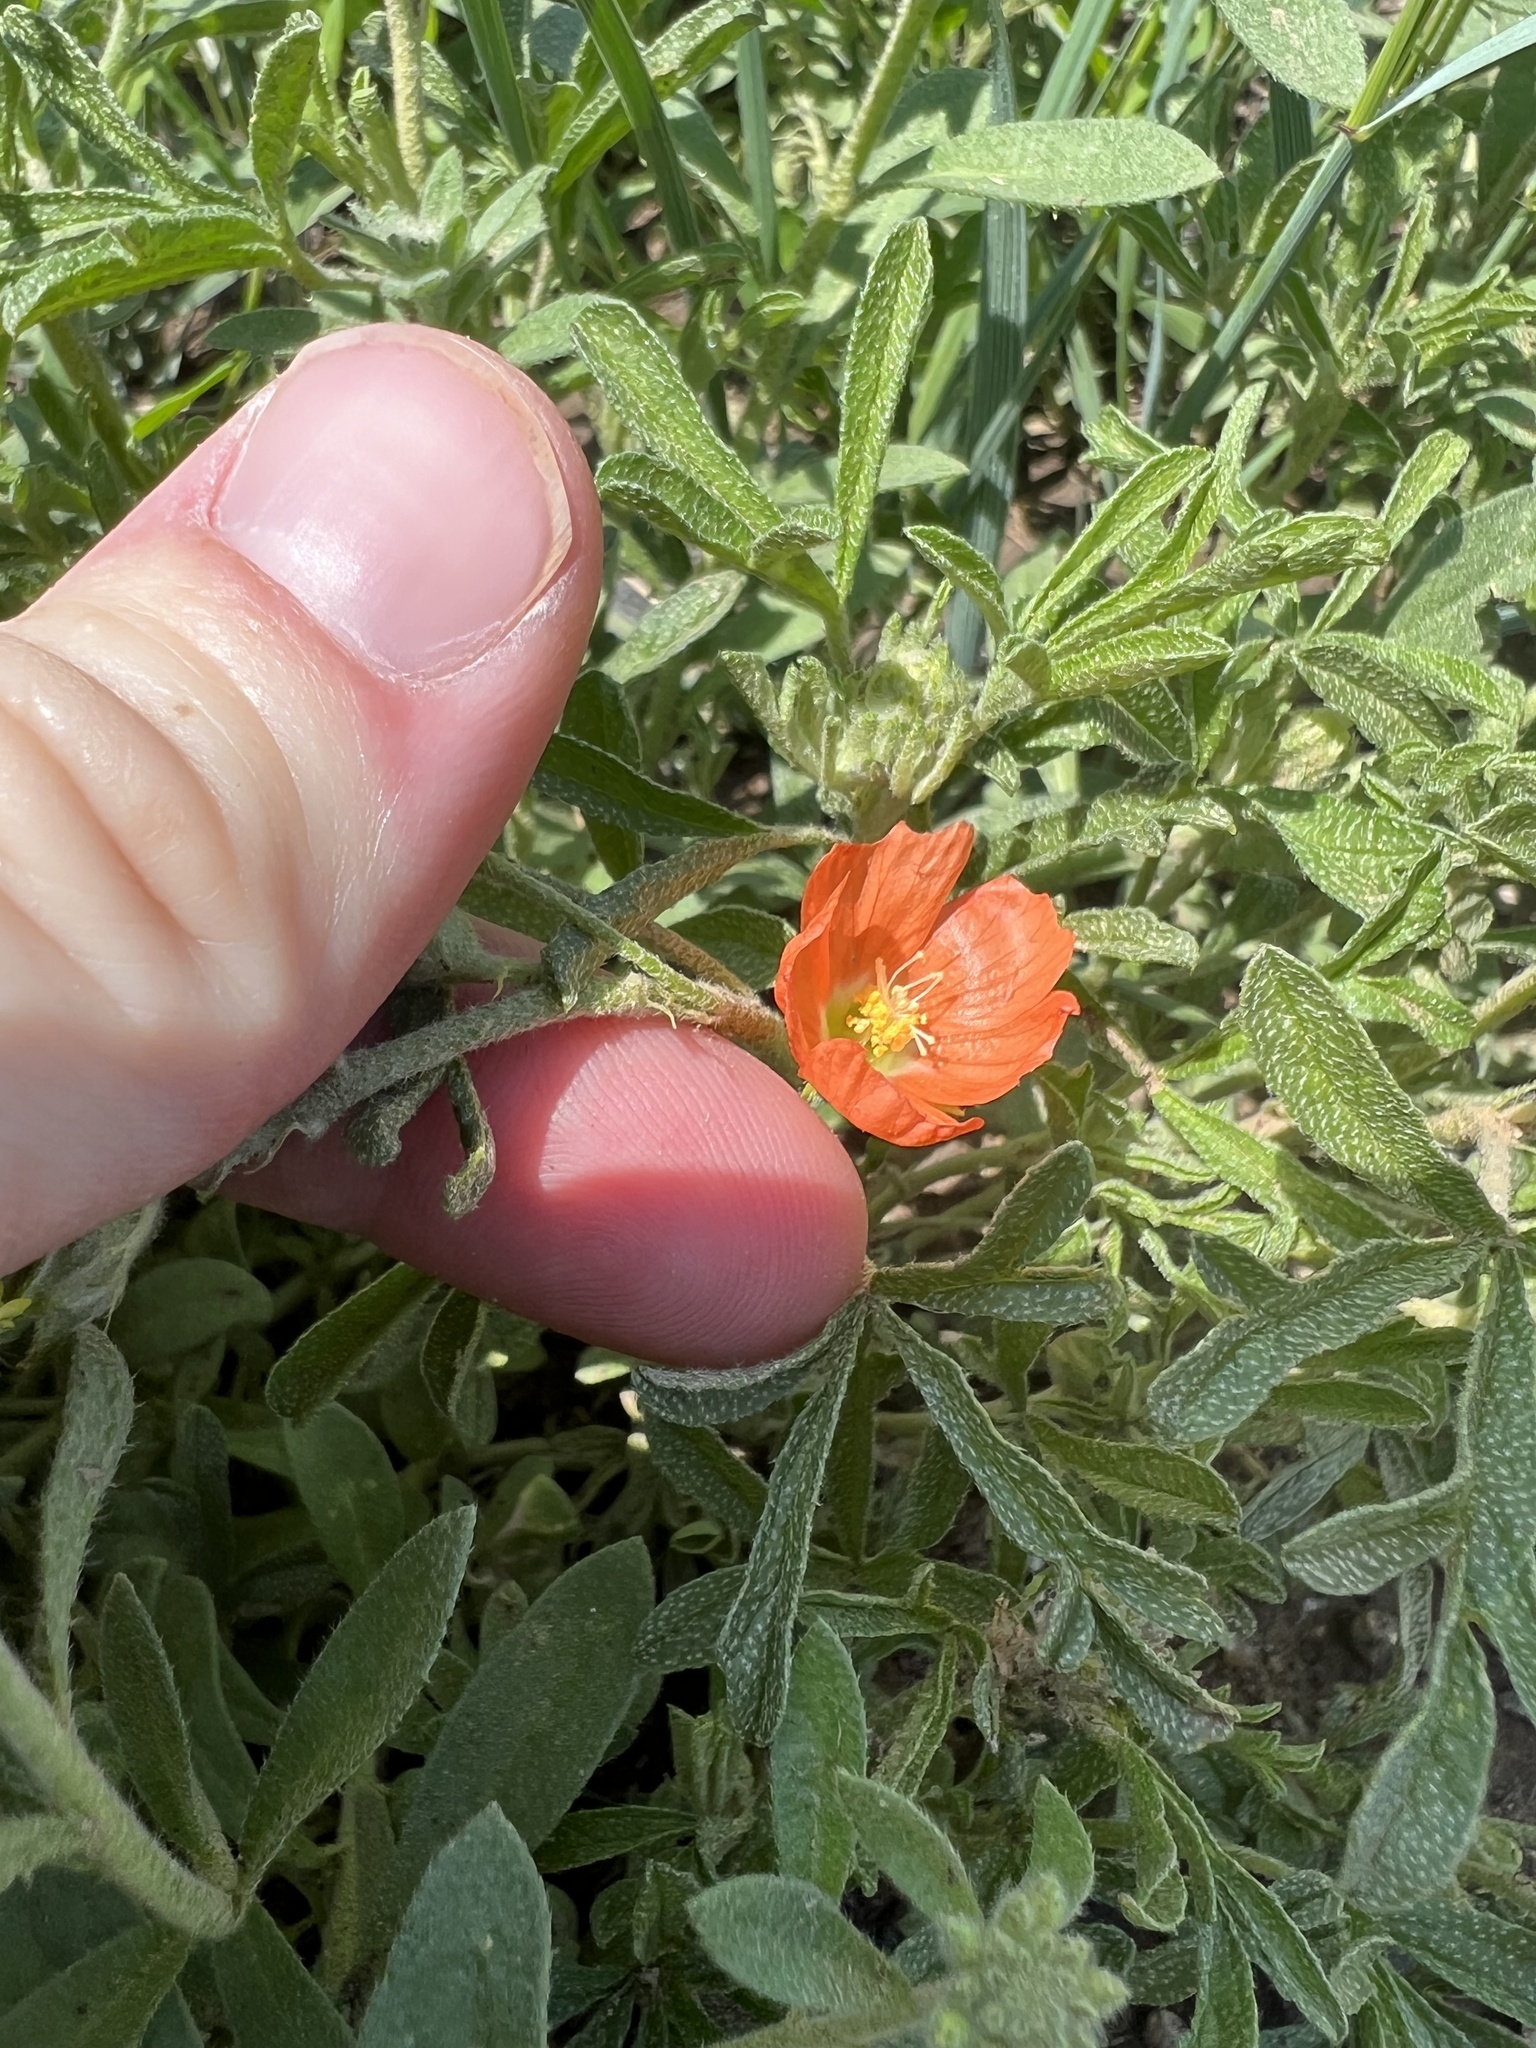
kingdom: Plantae
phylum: Tracheophyta
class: Magnoliopsida
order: Malvales
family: Malvaceae
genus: Sphaeralcea
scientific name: Sphaeralcea coccinea
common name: Moss-rose
